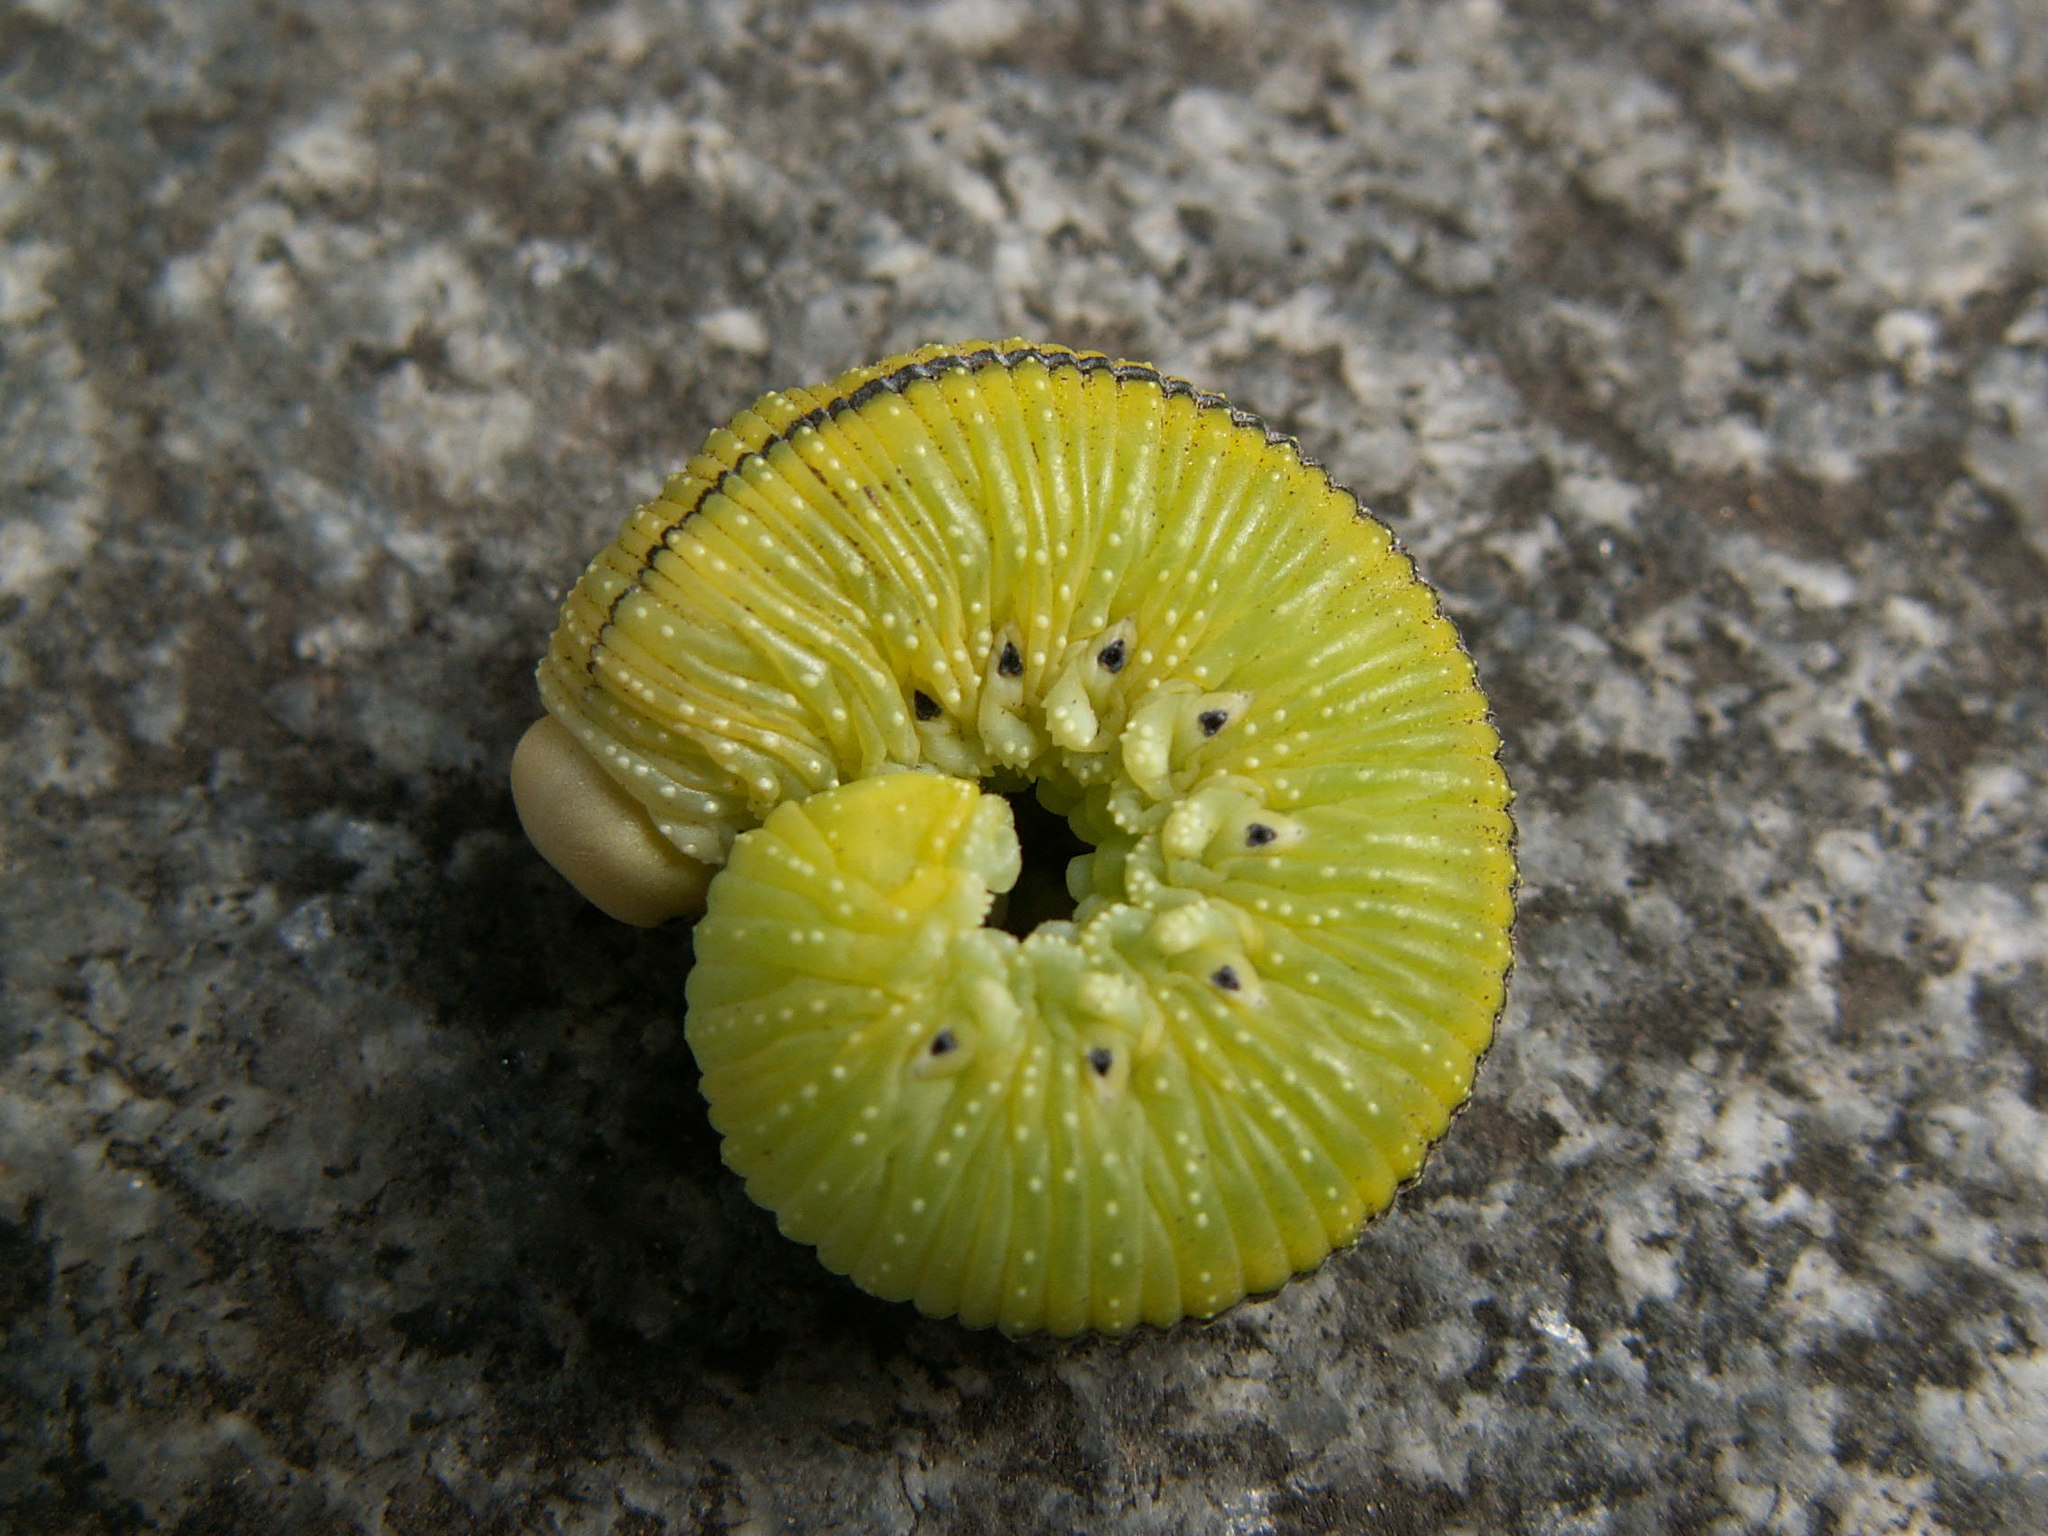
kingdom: Animalia
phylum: Arthropoda
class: Insecta
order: Hymenoptera
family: Cimbicidae
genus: Cimbex
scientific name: Cimbex femoratus
